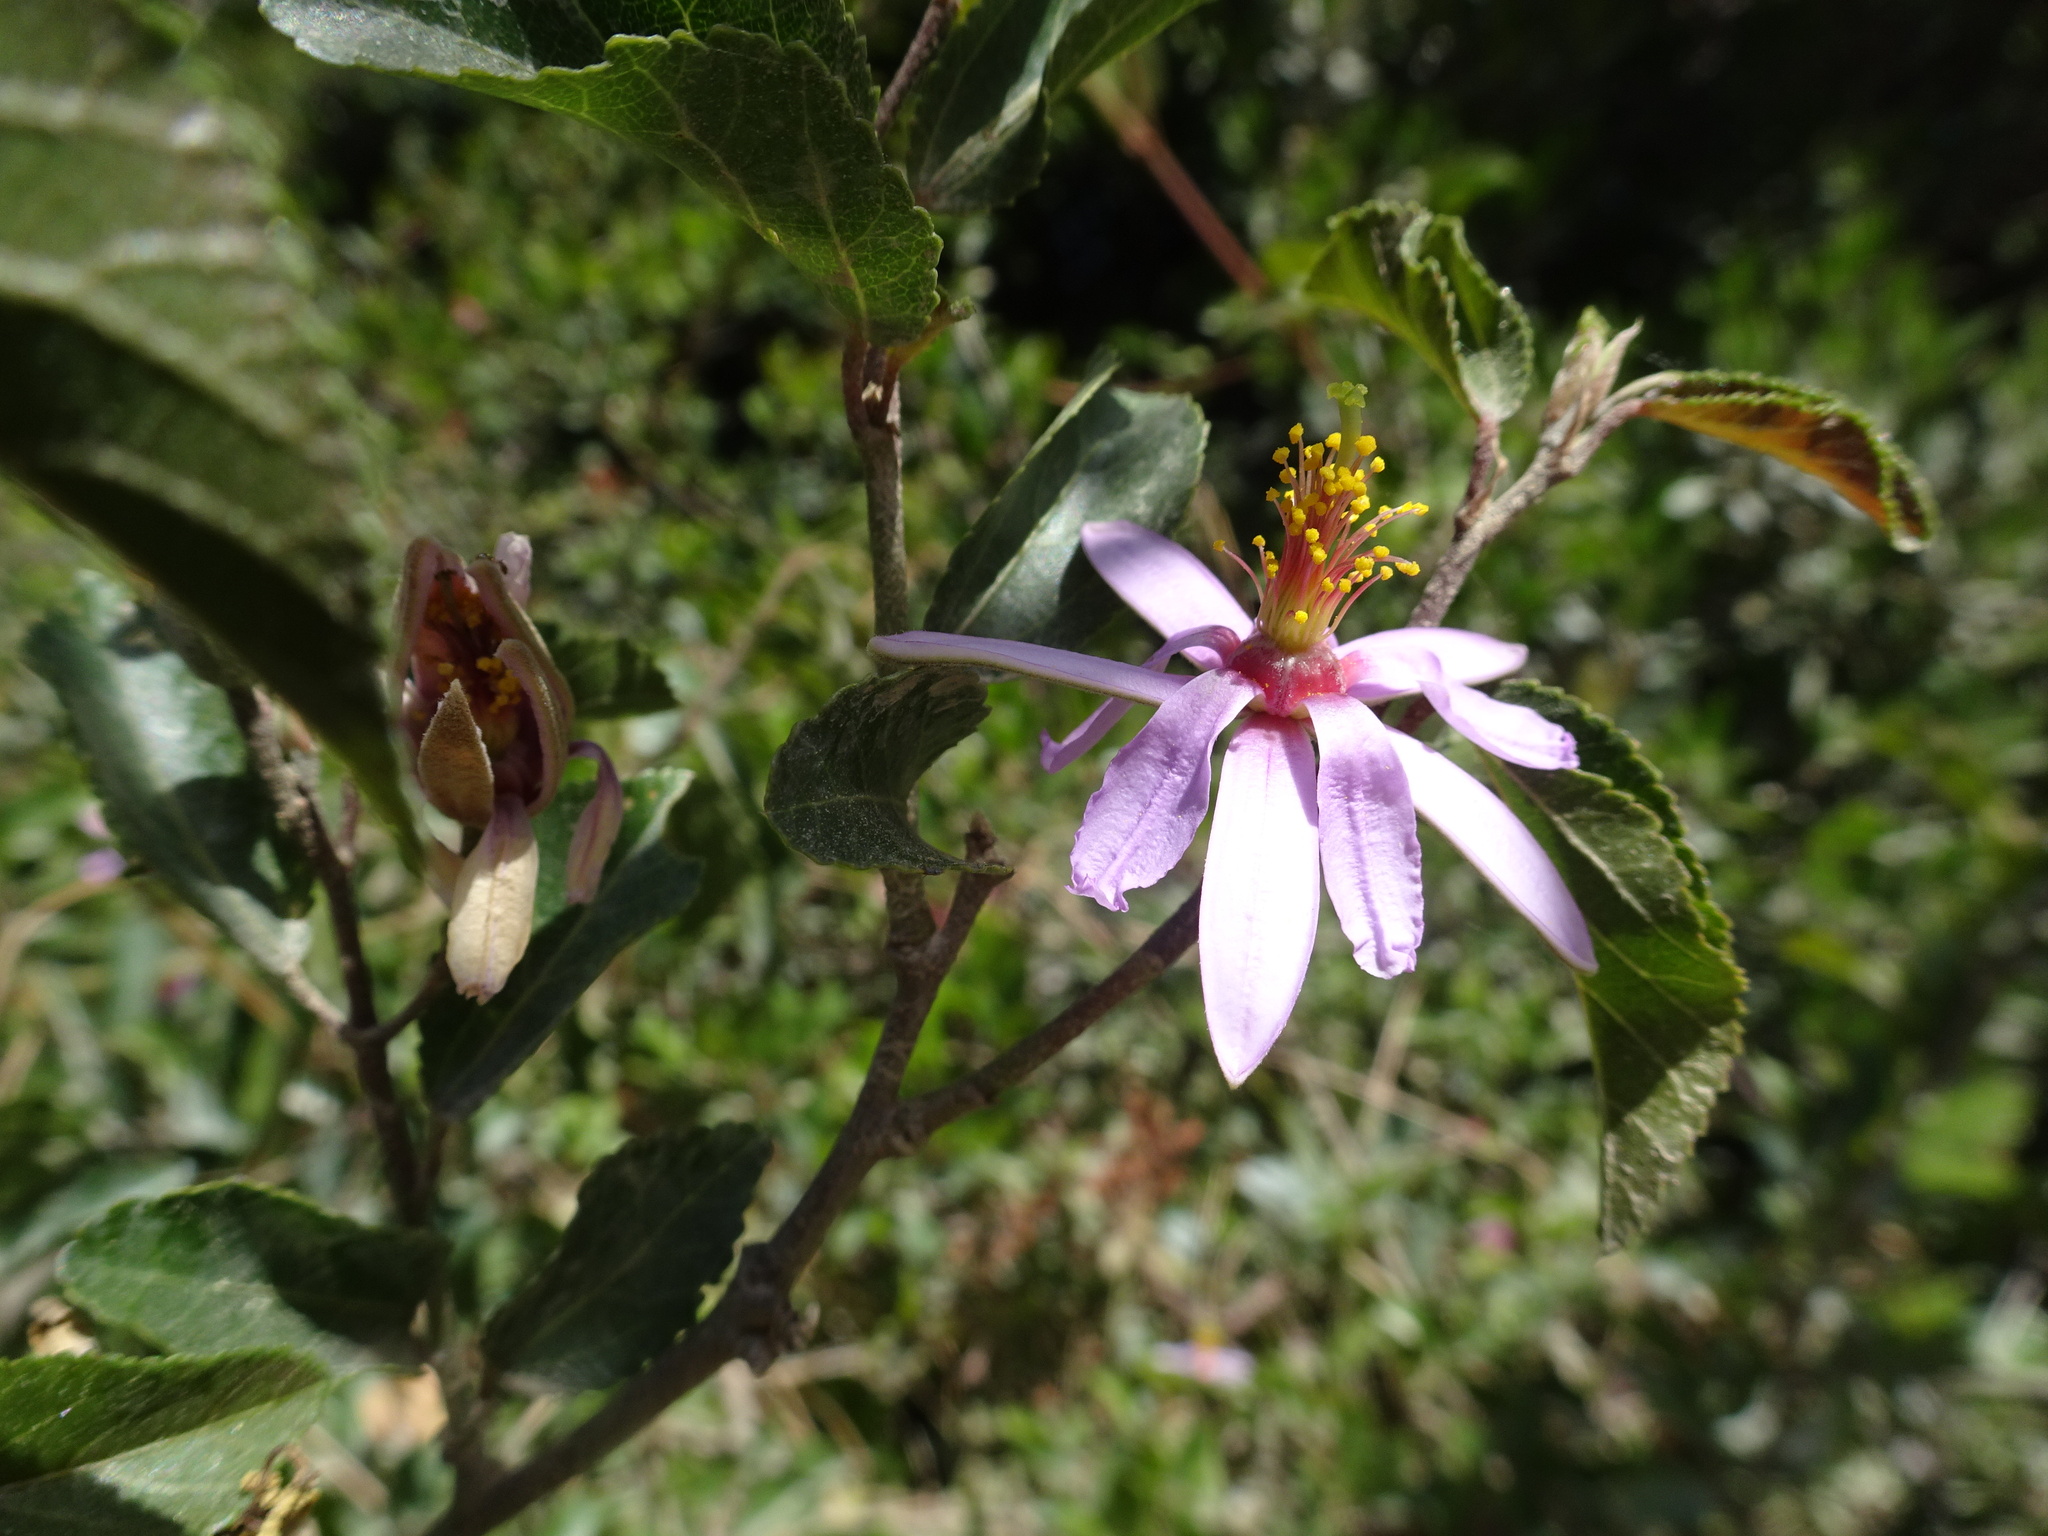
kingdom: Plantae
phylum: Tracheophyta
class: Magnoliopsida
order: Malvales
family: Malvaceae
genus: Grewia
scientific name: Grewia occidentalis
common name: Crossberry
